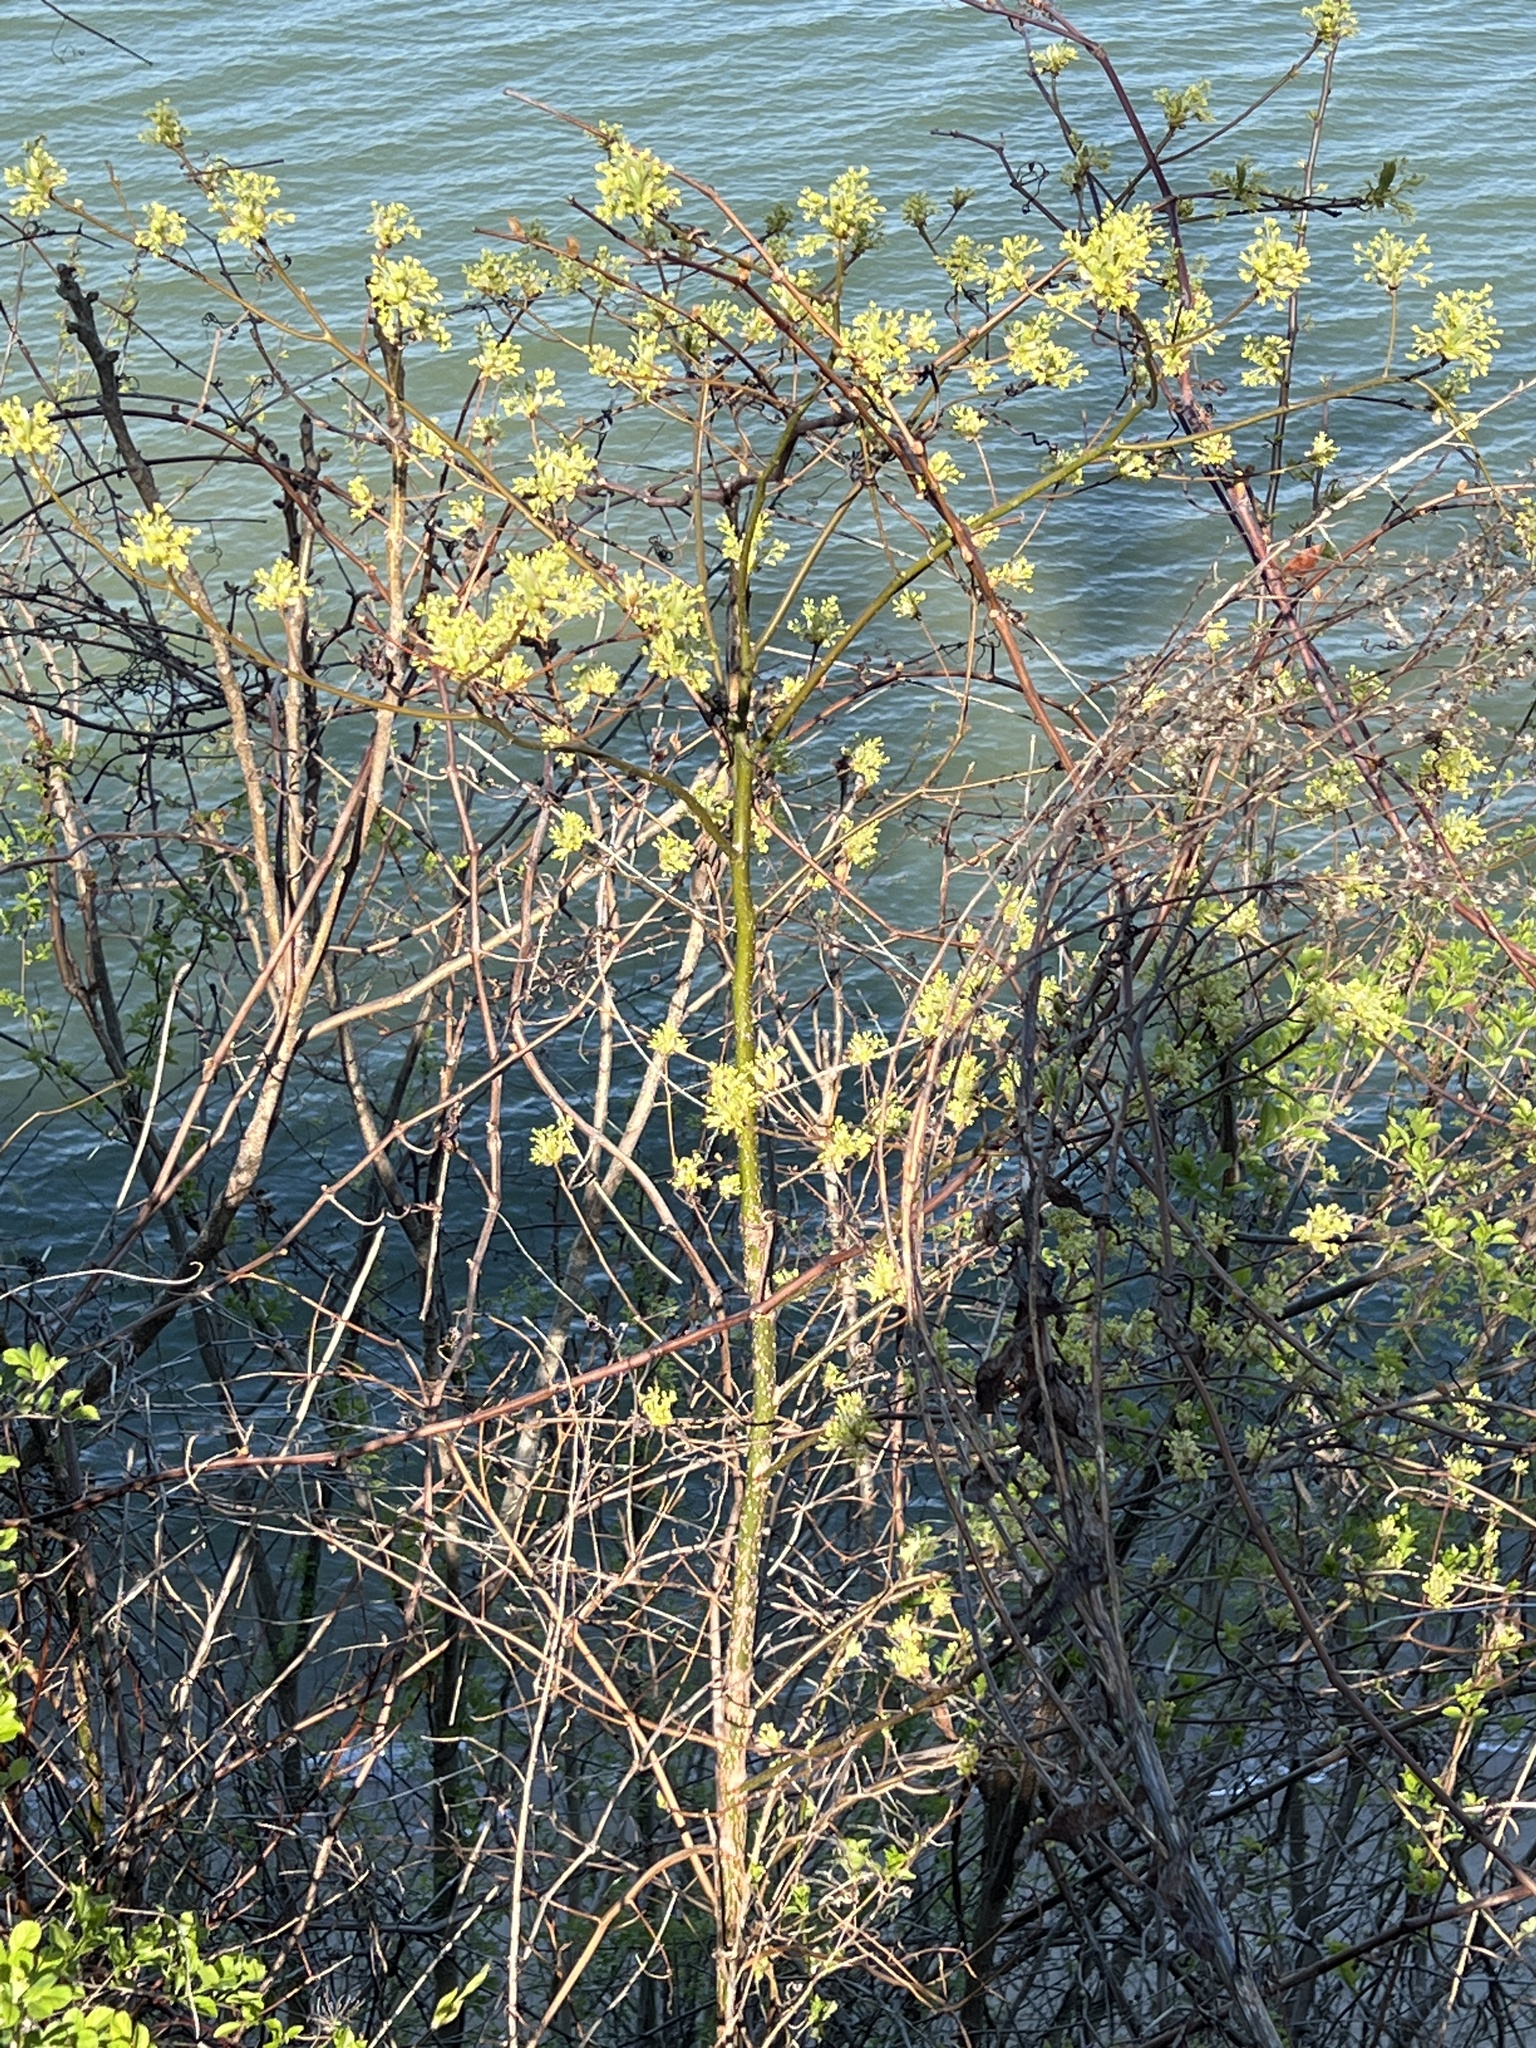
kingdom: Plantae
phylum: Tracheophyta
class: Magnoliopsida
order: Laurales
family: Lauraceae
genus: Sassafras
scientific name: Sassafras albidum
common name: Sassafras
